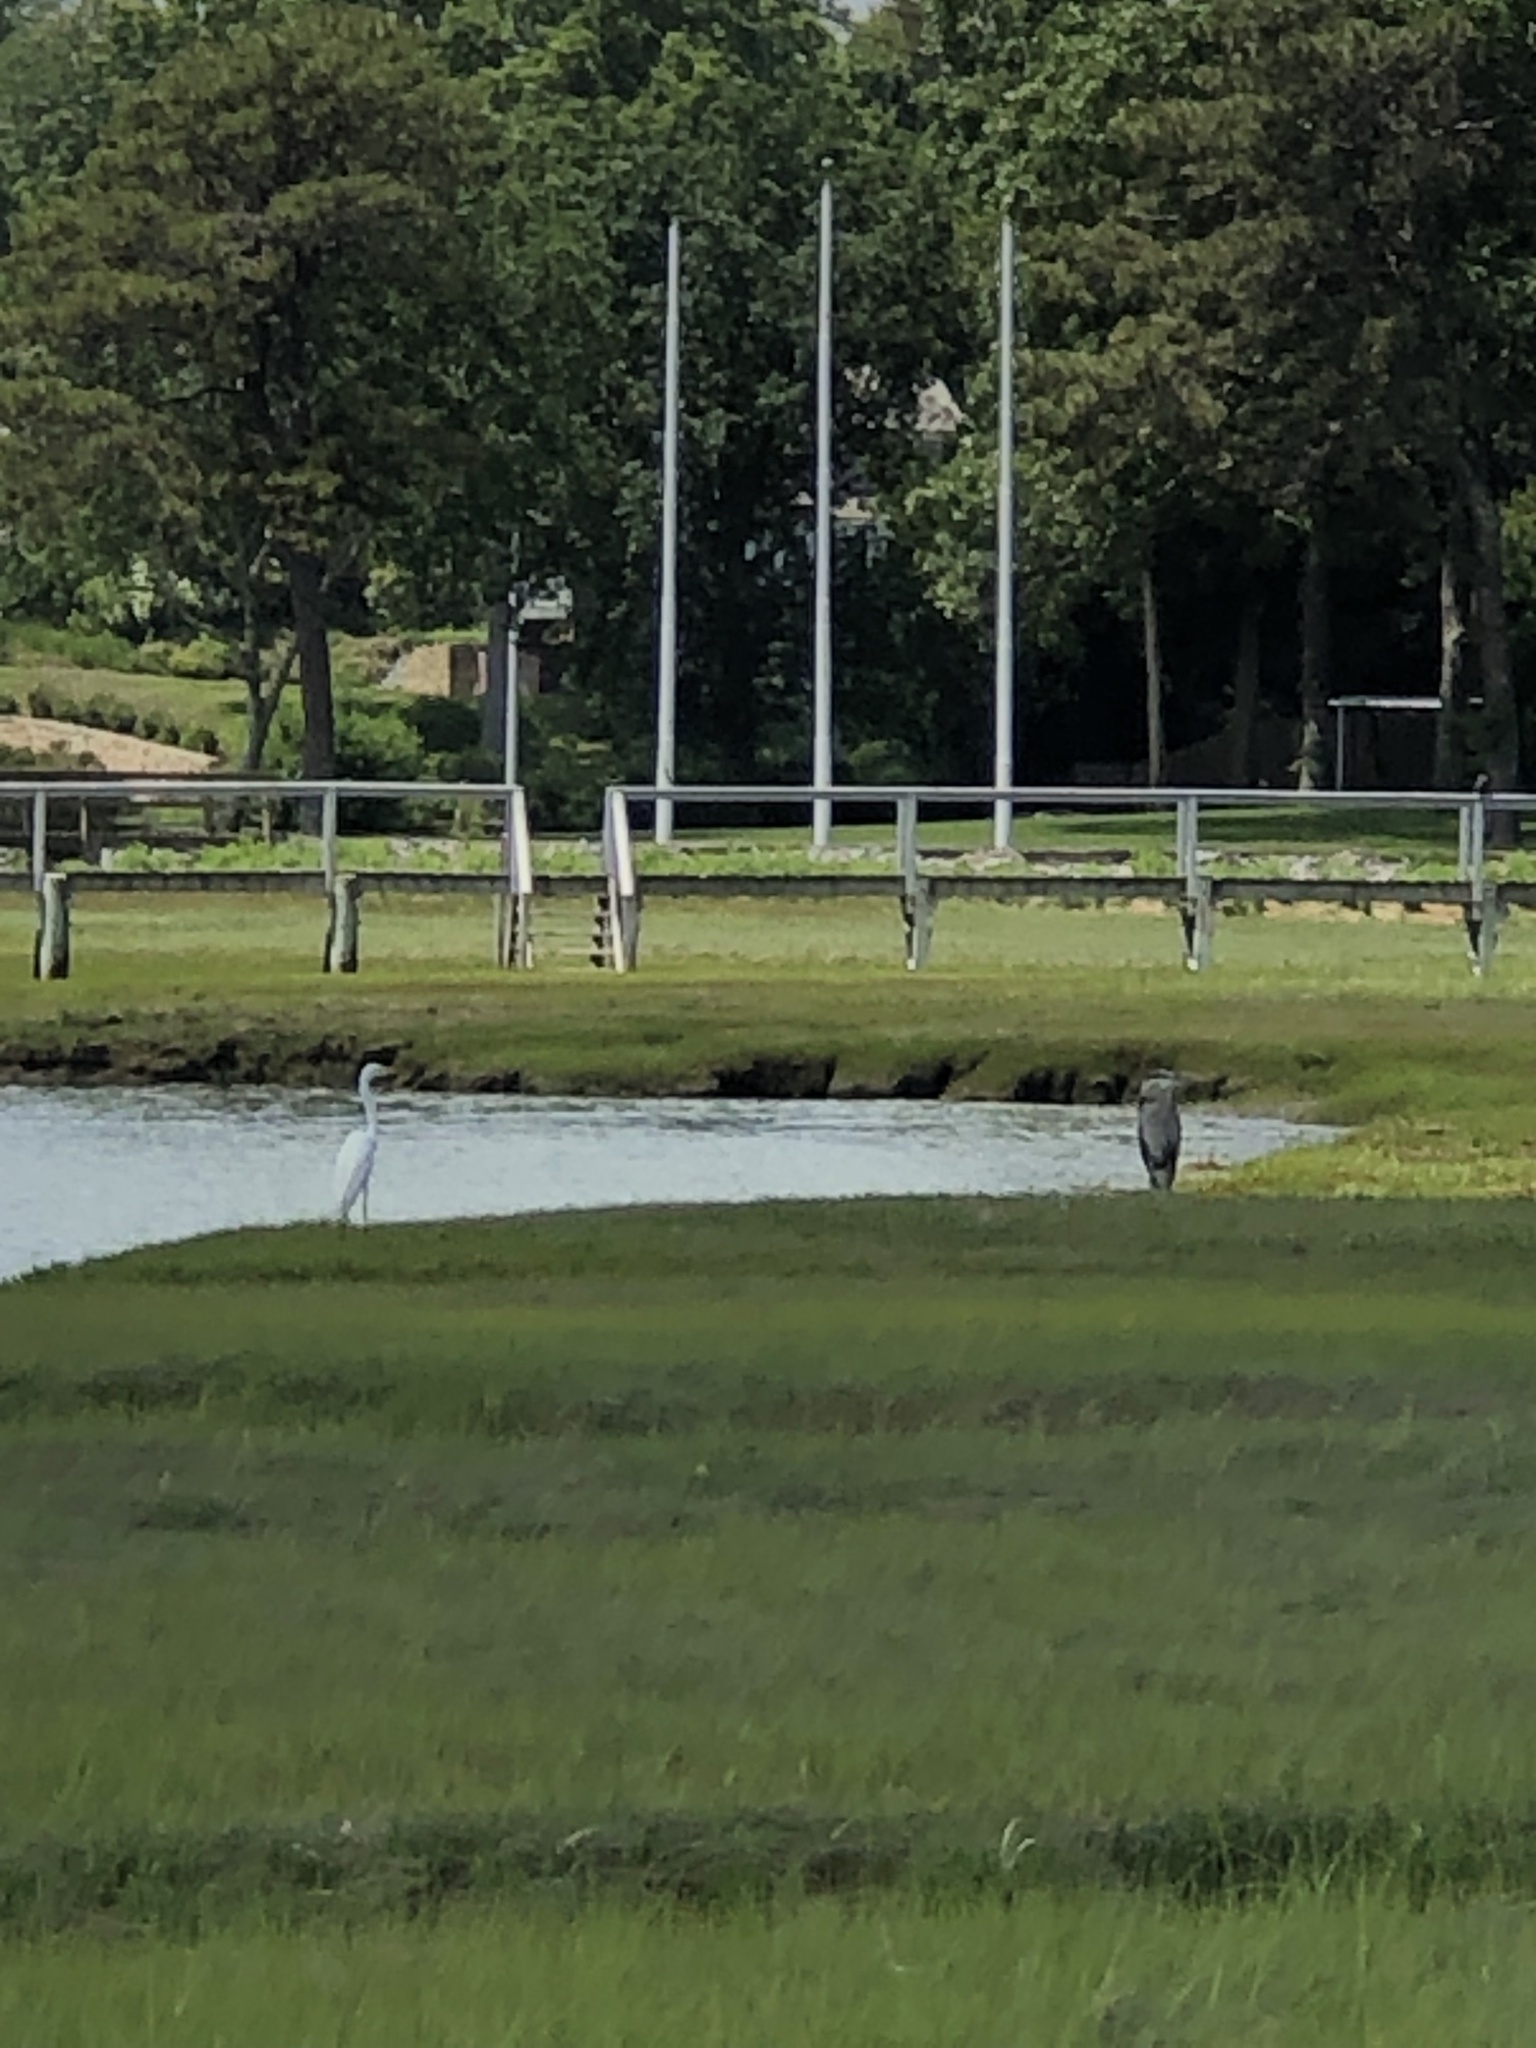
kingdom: Animalia
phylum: Chordata
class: Aves
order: Pelecaniformes
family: Ardeidae
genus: Ardea
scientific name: Ardea alba
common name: Great egret
